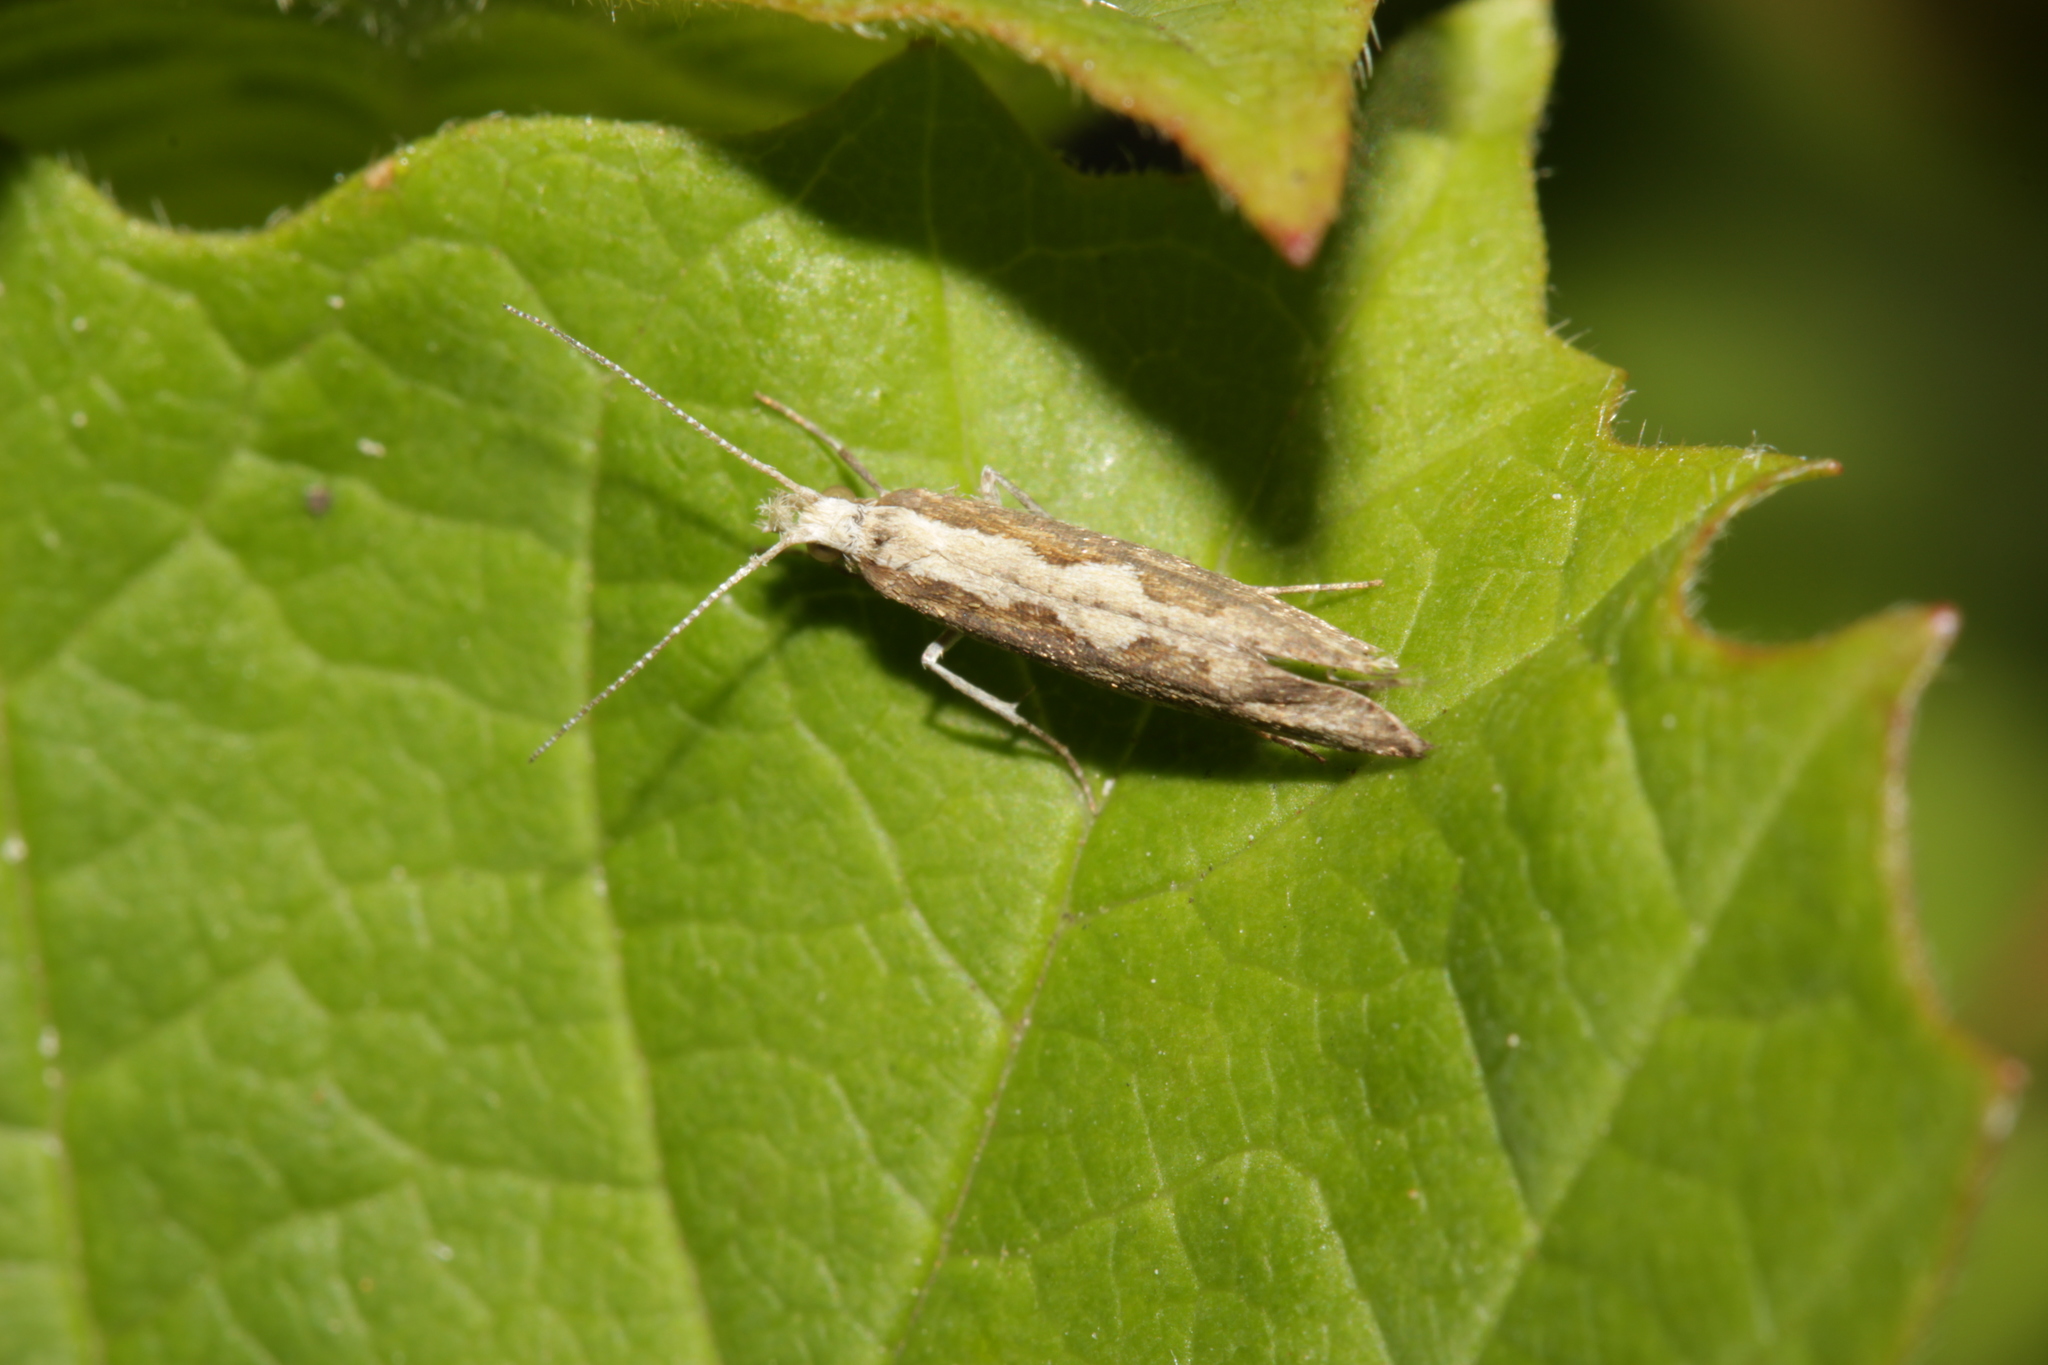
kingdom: Animalia
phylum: Arthropoda
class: Insecta
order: Lepidoptera
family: Plutellidae
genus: Plutella
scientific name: Plutella xylostella
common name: Diamond-back moth
